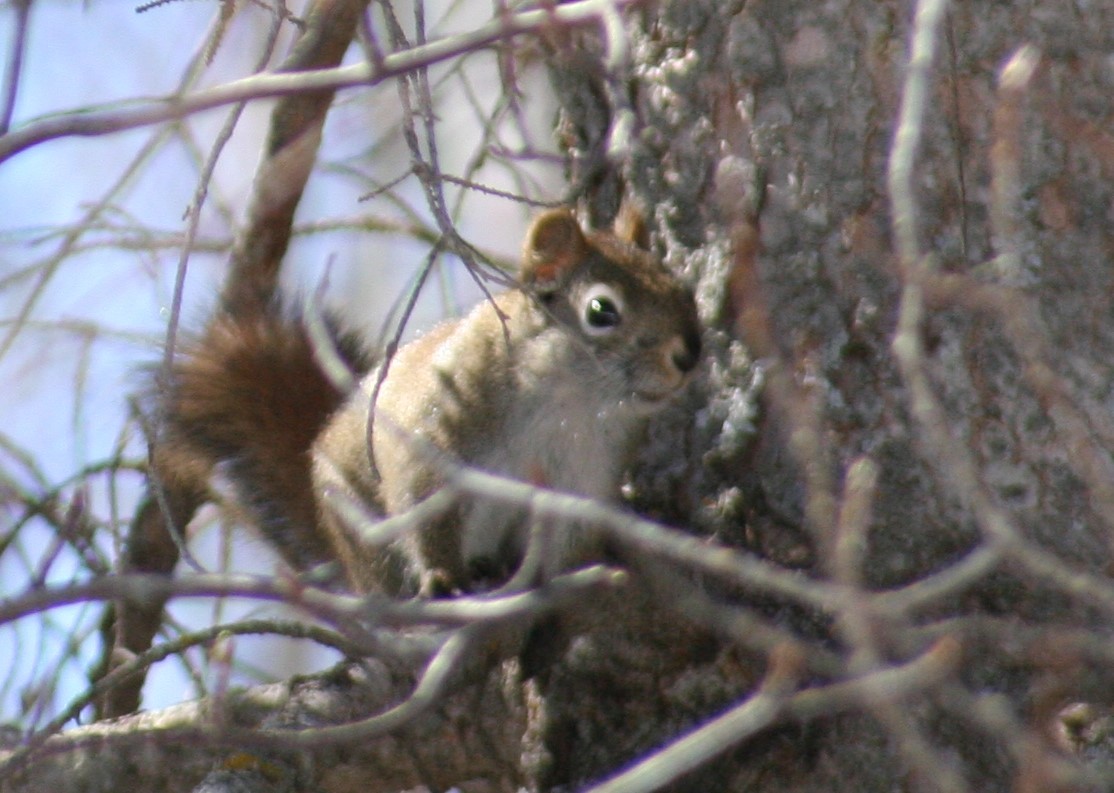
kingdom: Animalia
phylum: Chordata
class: Mammalia
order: Rodentia
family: Sciuridae
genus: Tamiasciurus
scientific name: Tamiasciurus hudsonicus
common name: Red squirrel
